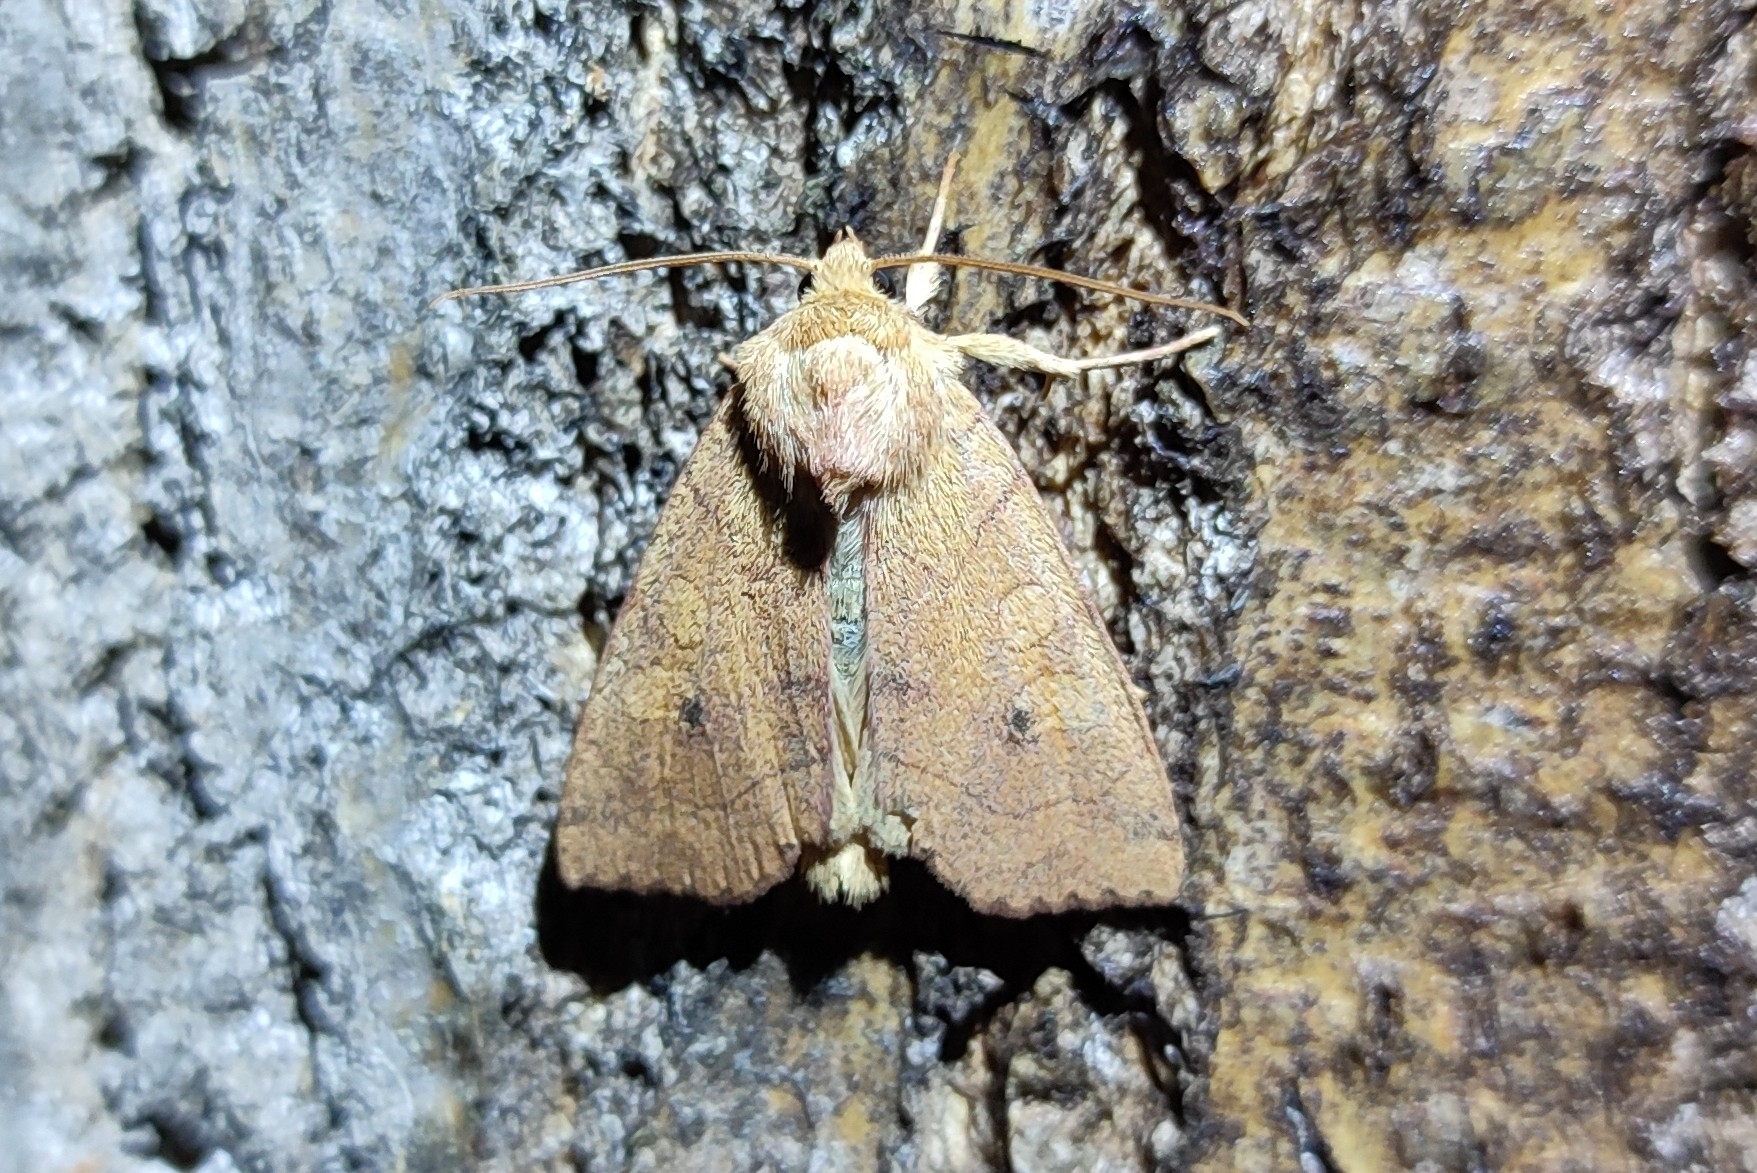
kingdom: Animalia
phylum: Arthropoda
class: Insecta
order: Lepidoptera
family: Noctuidae
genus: Enargia
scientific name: Enargia paleacea
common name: Angle-striped sallow
